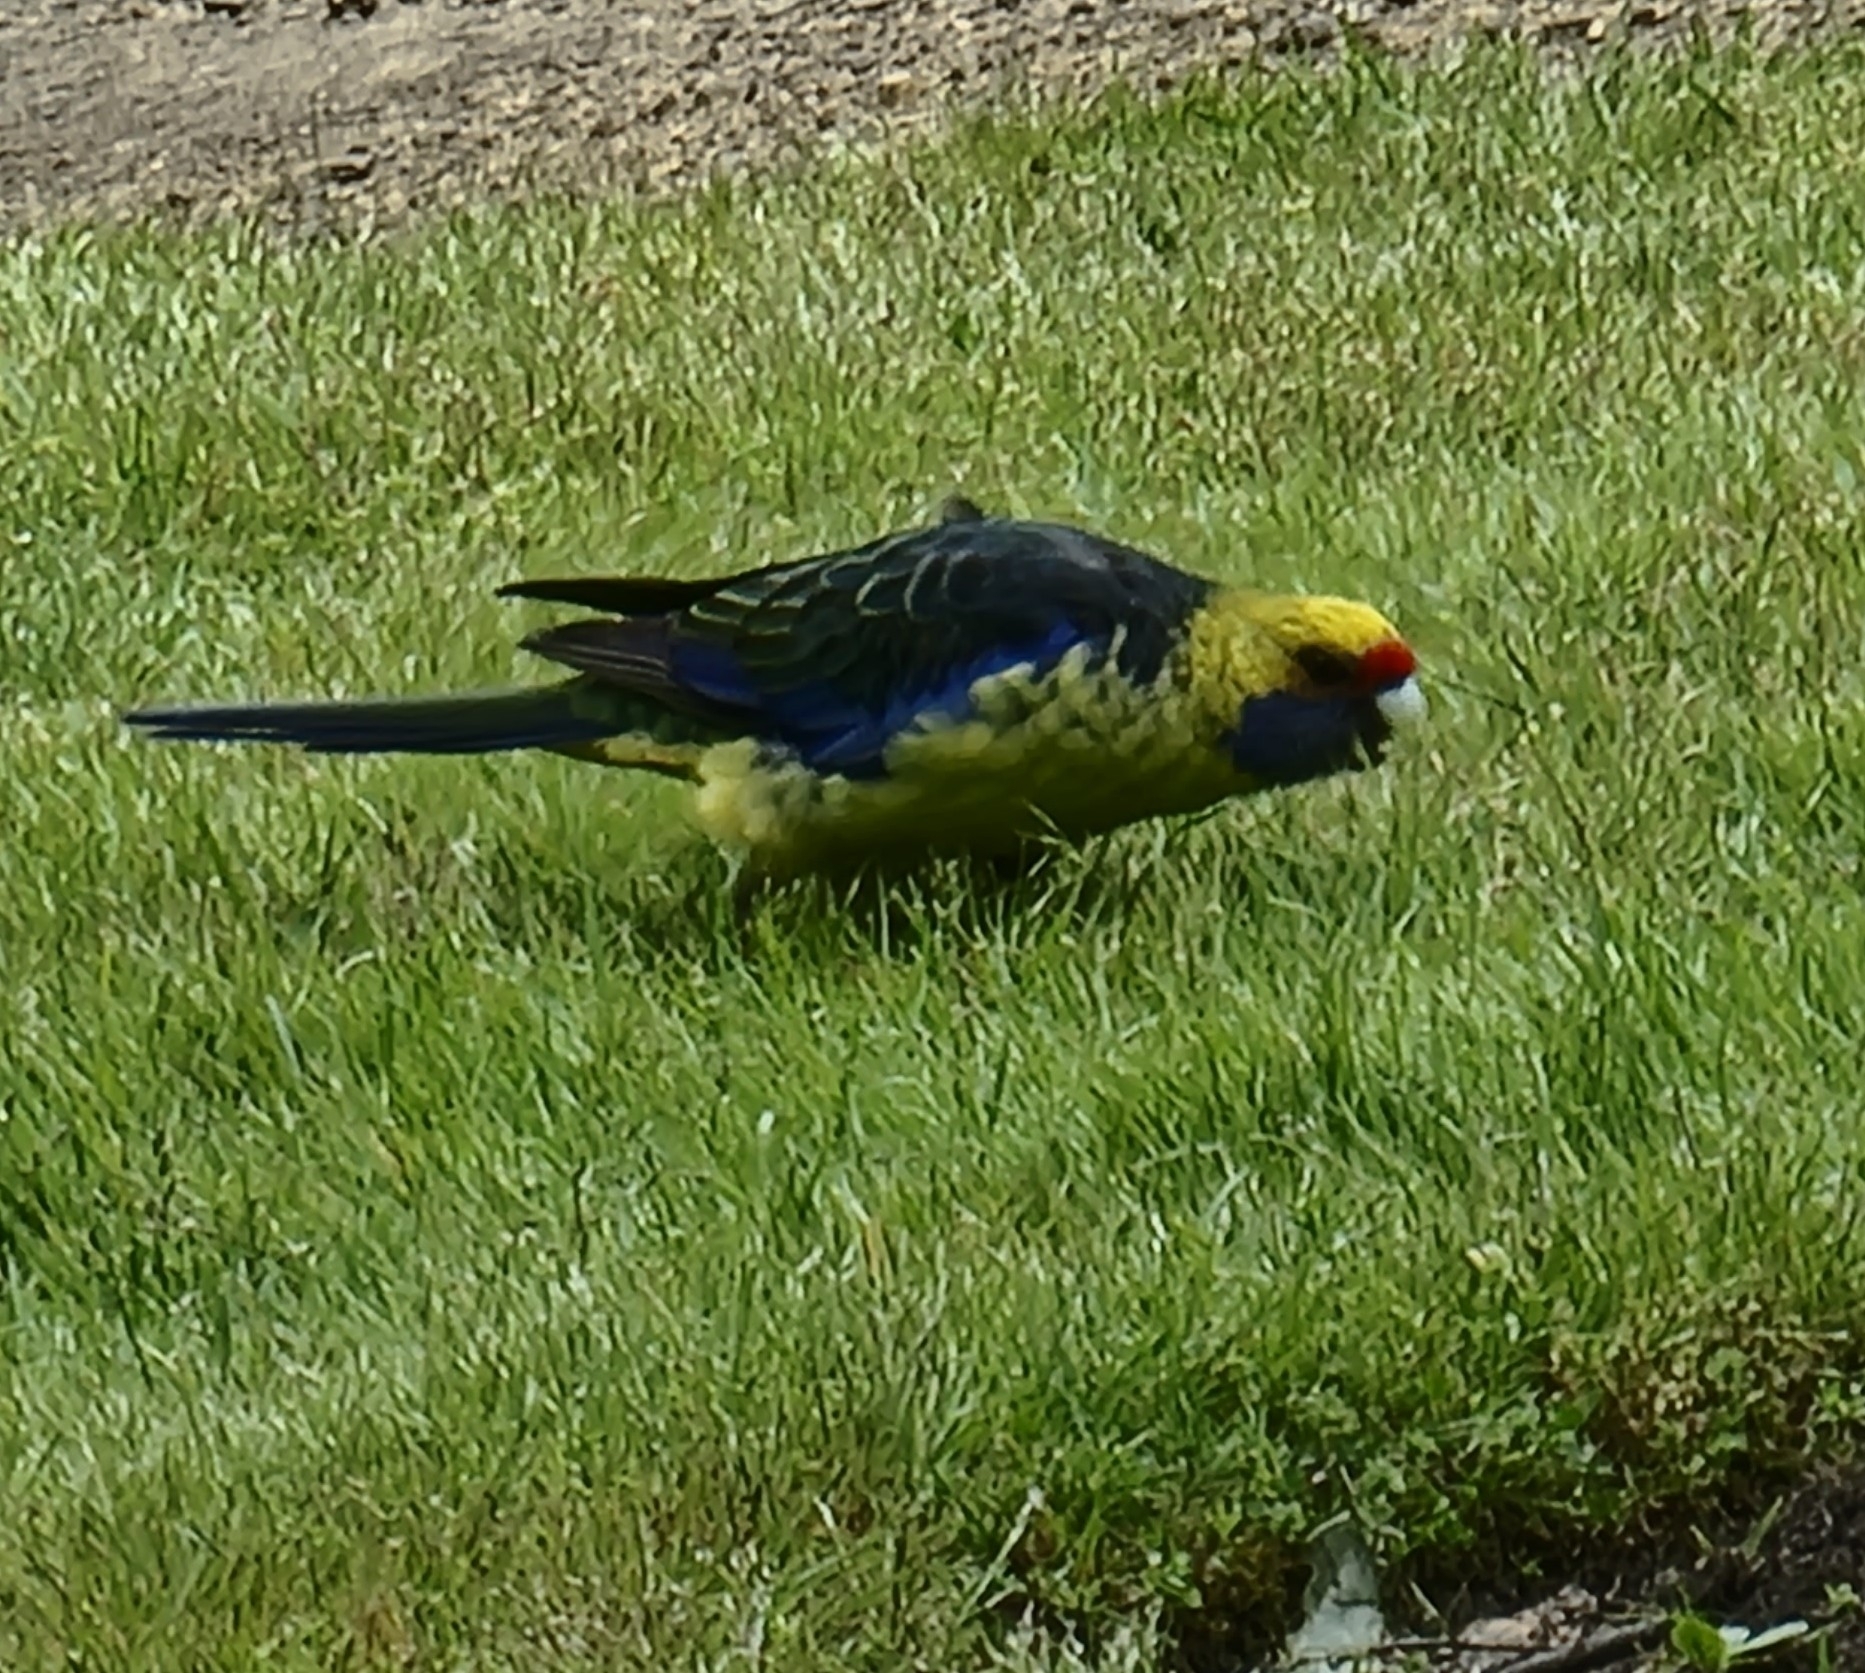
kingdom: Animalia
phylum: Chordata
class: Aves
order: Psittaciformes
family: Psittacidae
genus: Platycercus
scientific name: Platycercus caledonicus
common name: Green rosella
